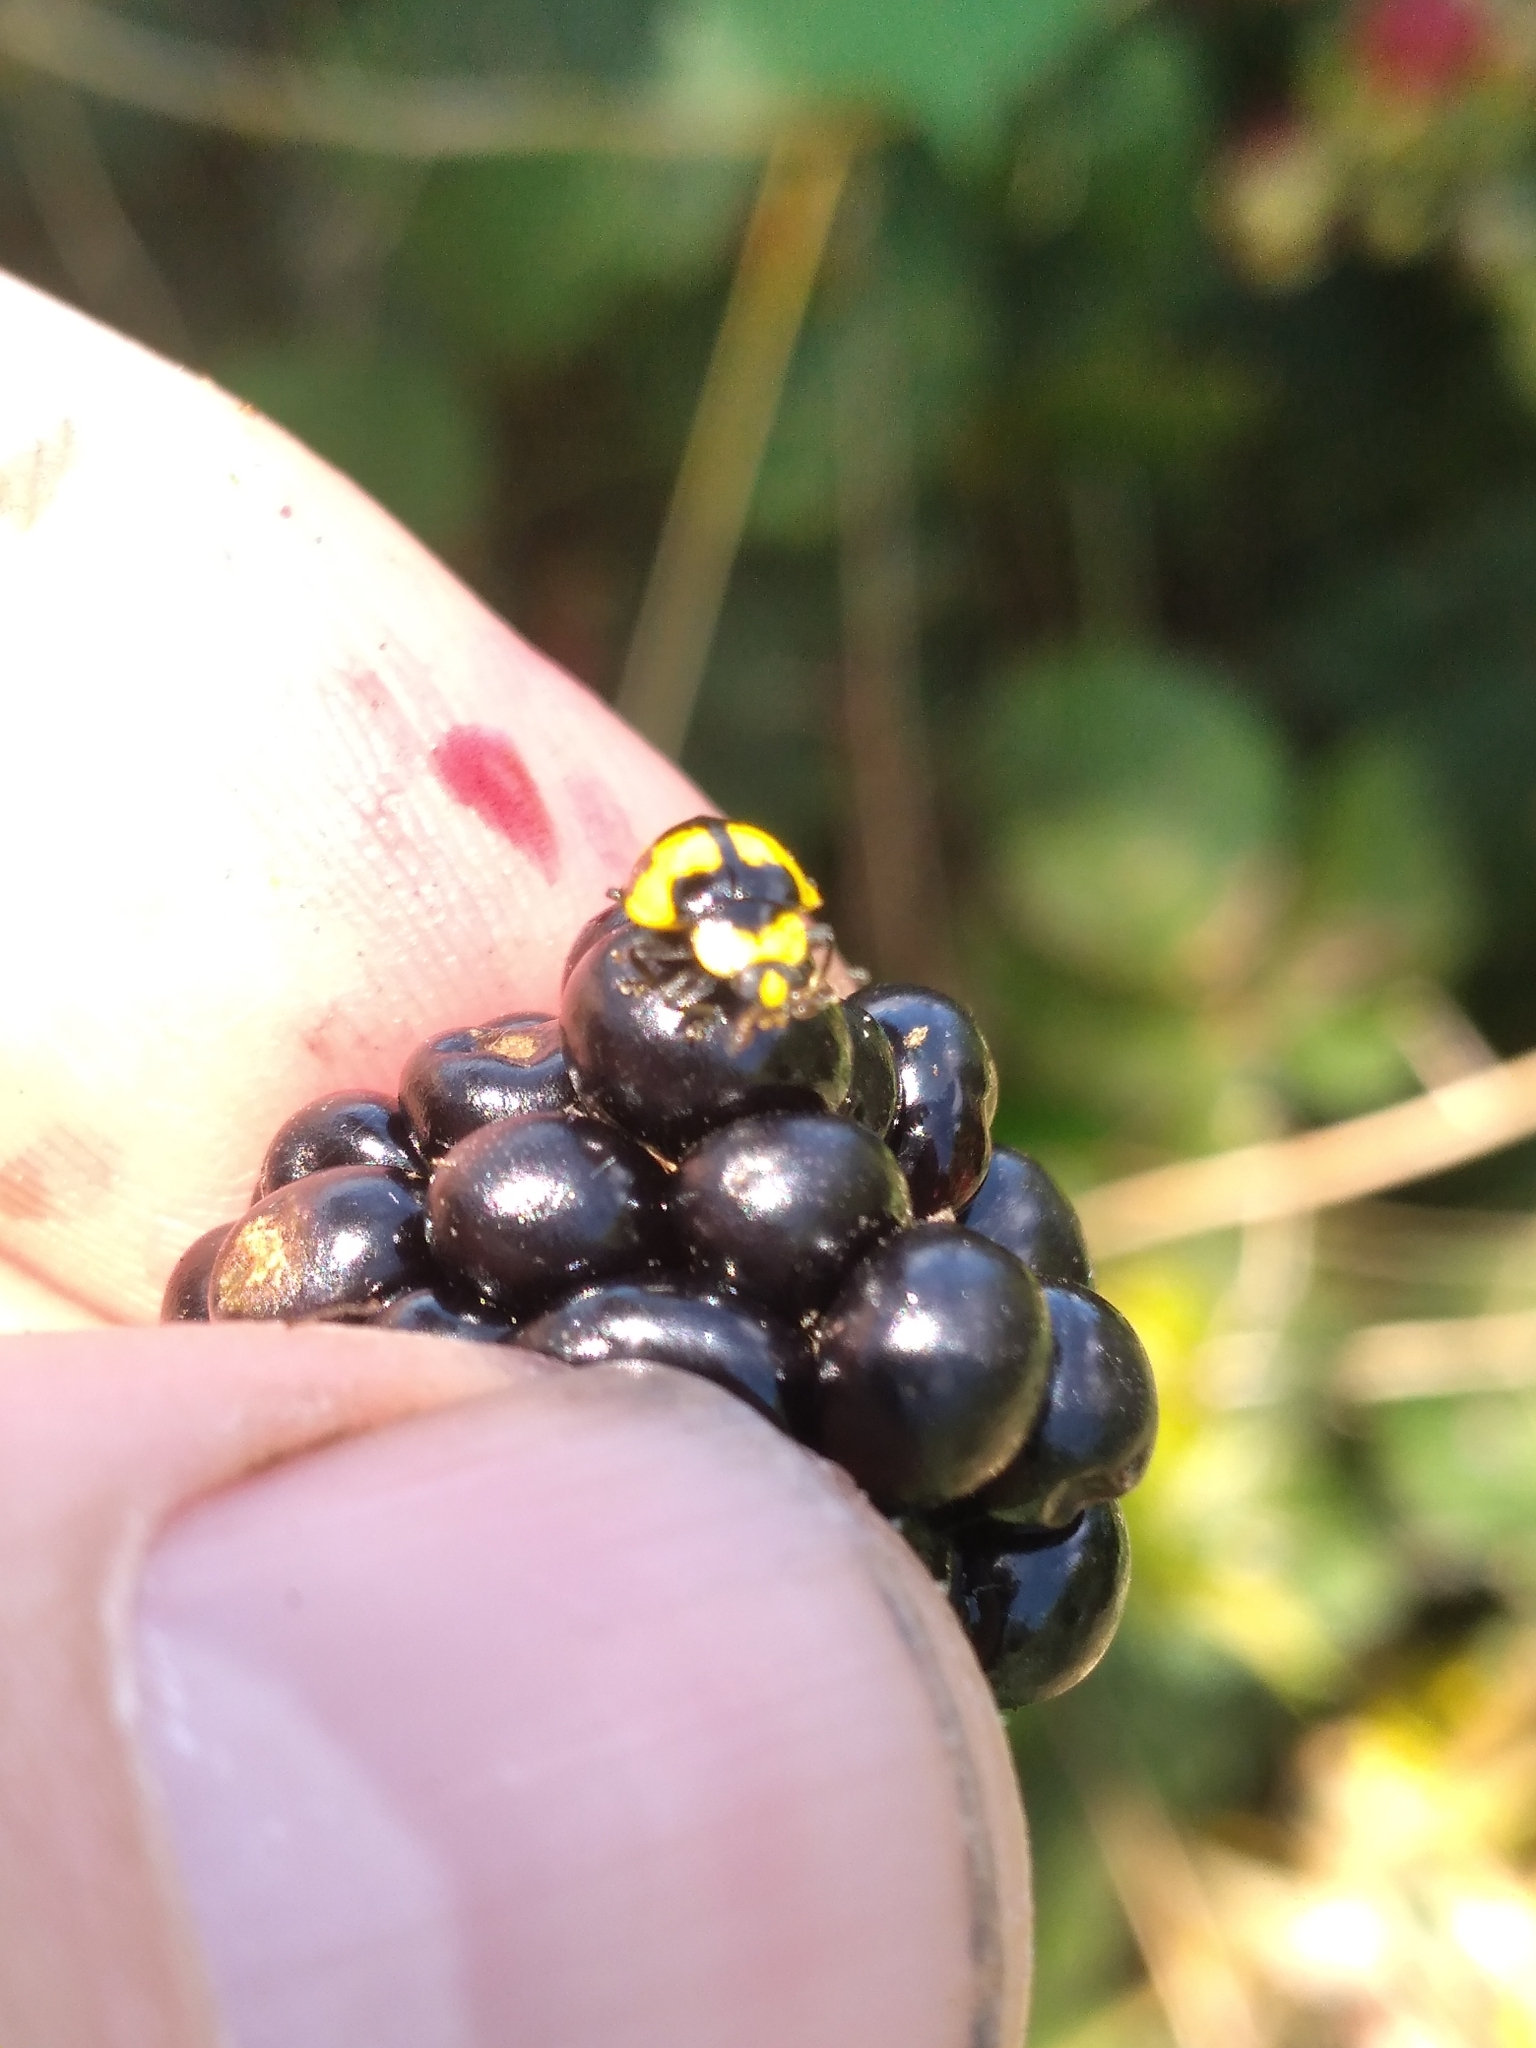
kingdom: Animalia
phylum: Arthropoda
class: Insecta
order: Coleoptera
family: Coccinellidae
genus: Illeis
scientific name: Illeis galbula
